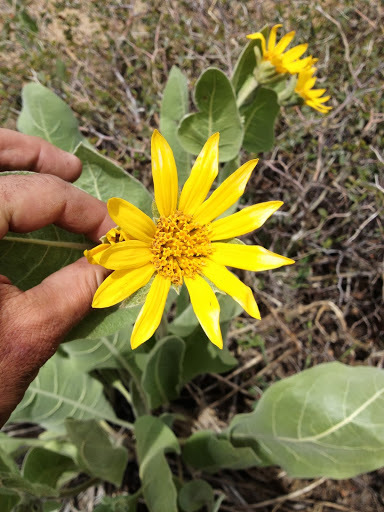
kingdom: Plantae
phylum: Tracheophyta
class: Magnoliopsida
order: Asterales
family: Asteraceae
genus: Wyethia
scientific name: Wyethia mollis
